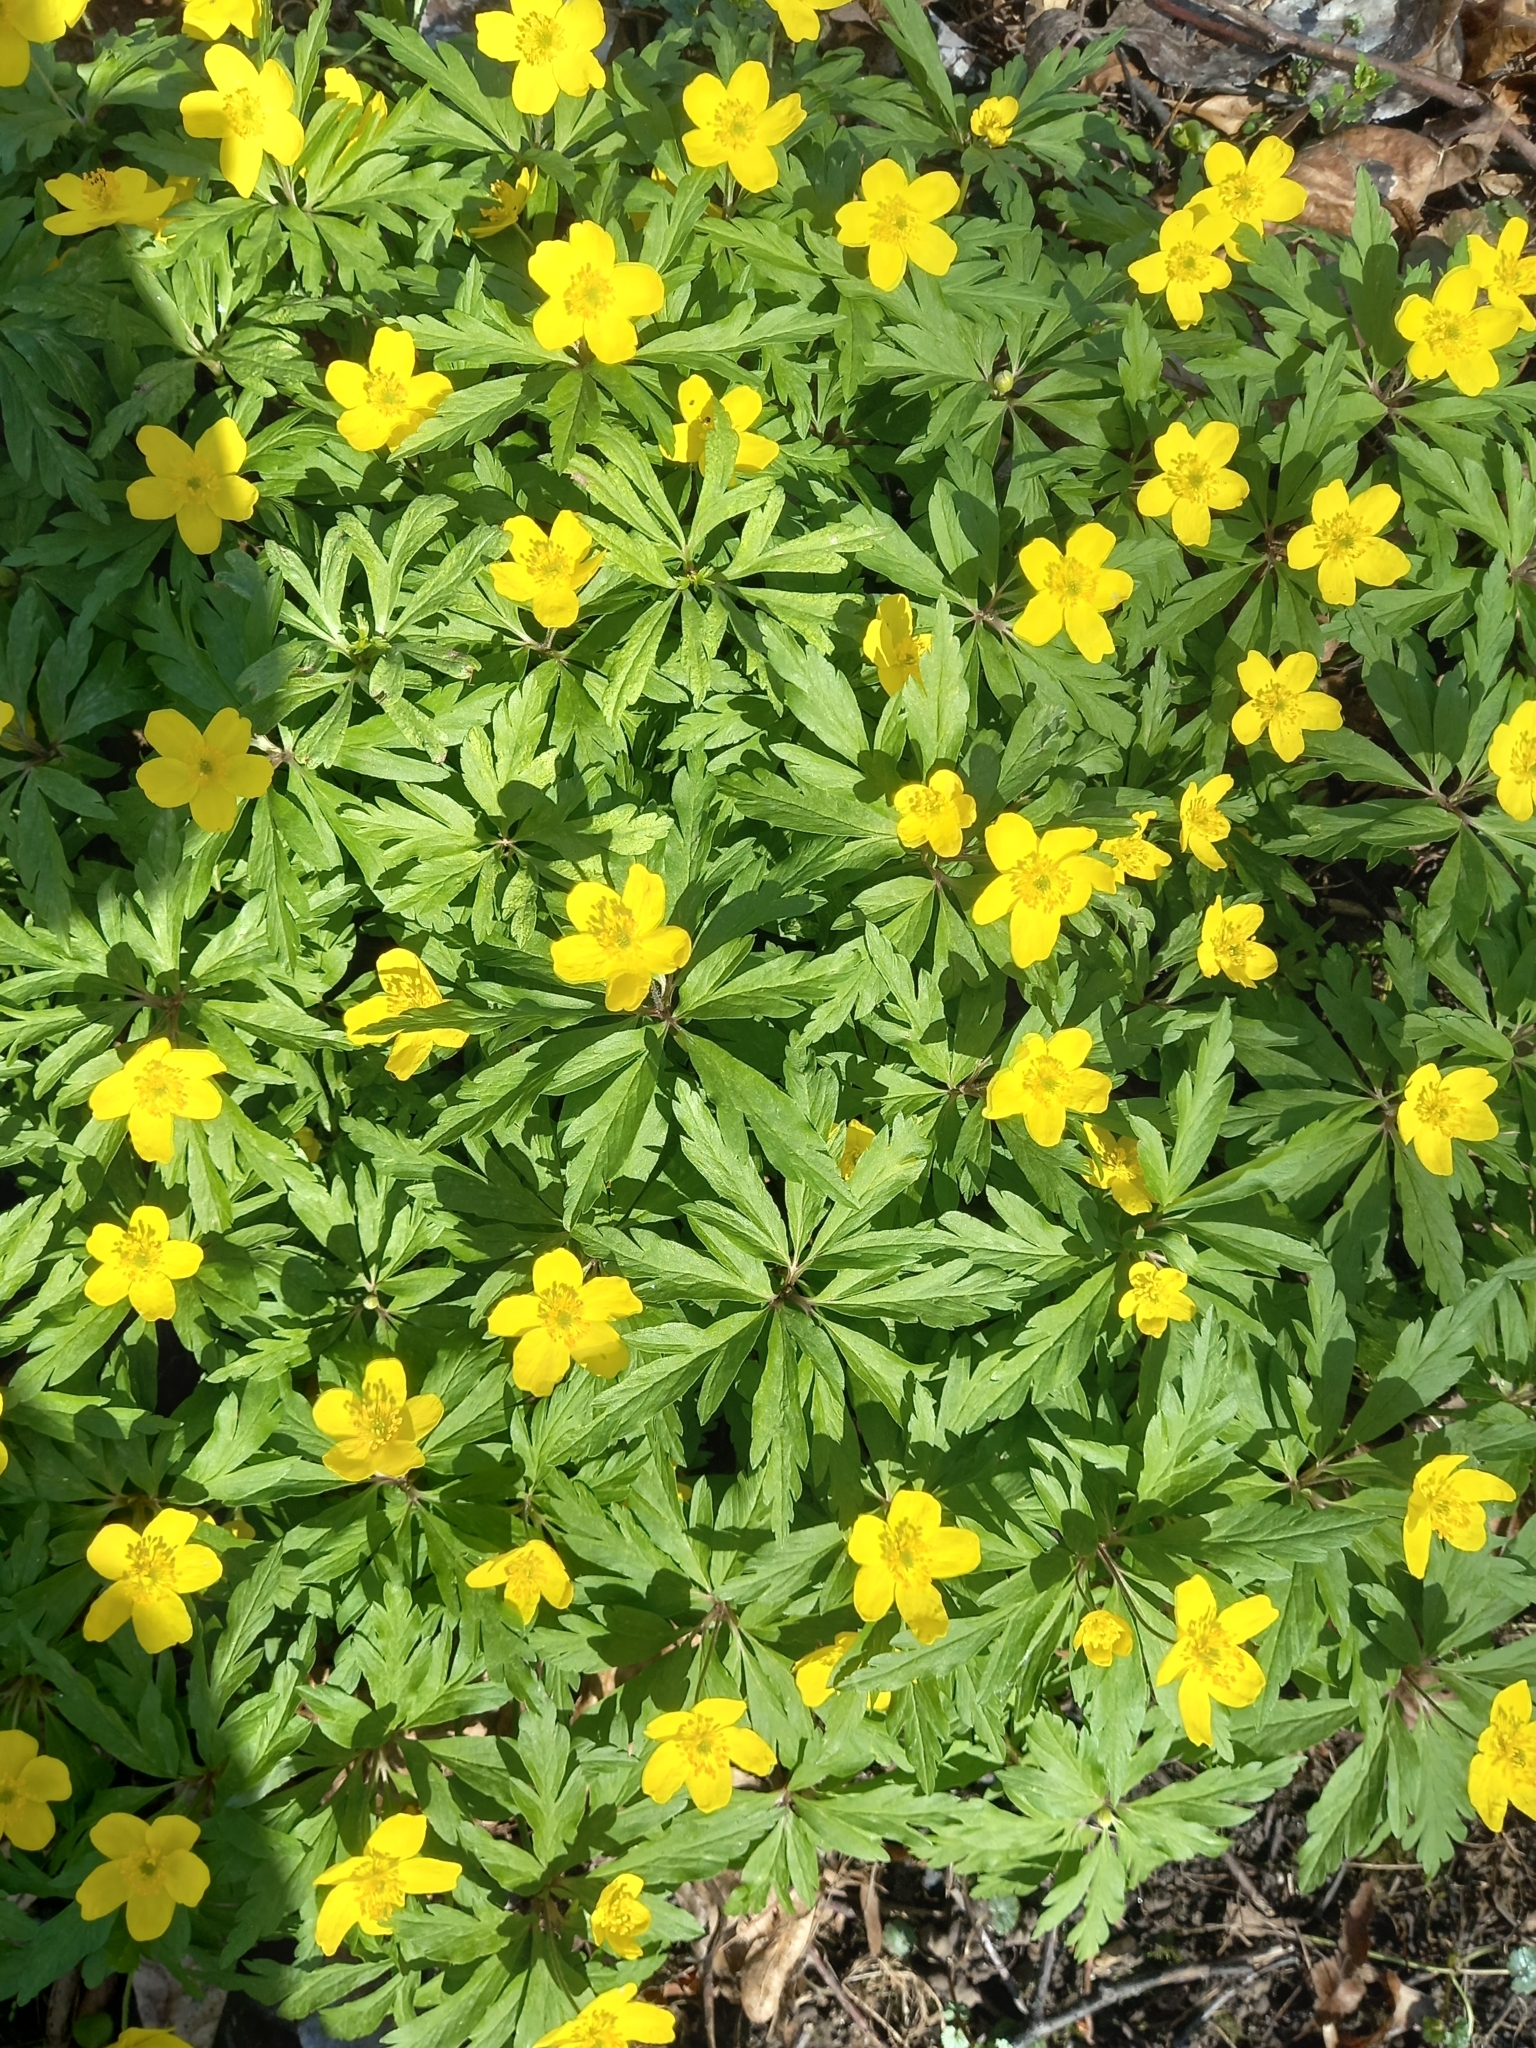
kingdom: Plantae
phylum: Tracheophyta
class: Magnoliopsida
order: Ranunculales
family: Ranunculaceae
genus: Anemone
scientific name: Anemone ranunculoides
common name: Yellow anemone
